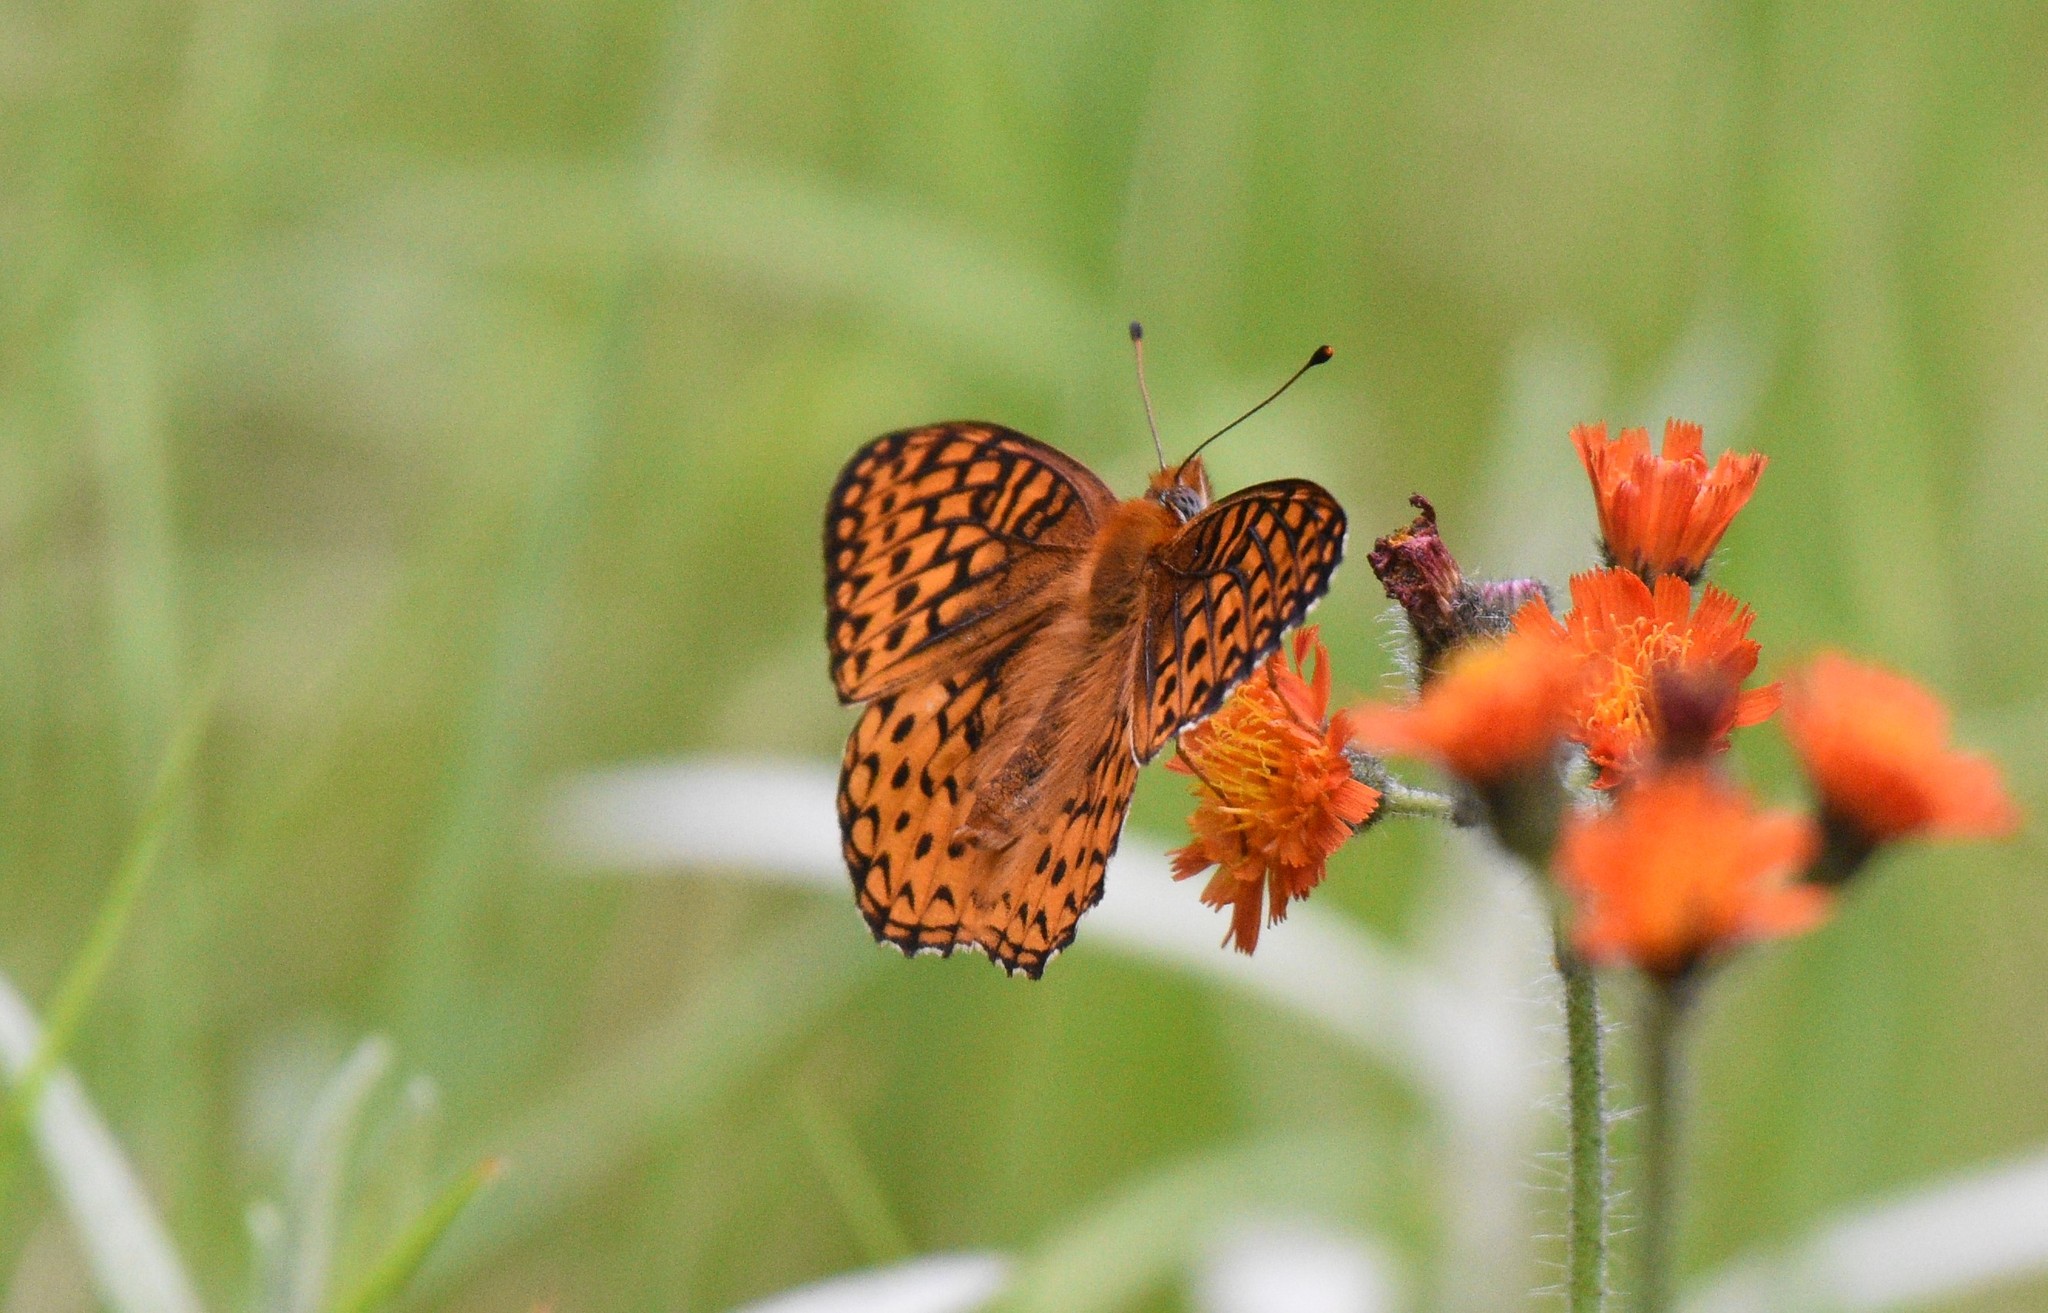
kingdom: Animalia
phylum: Arthropoda
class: Insecta
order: Lepidoptera
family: Nymphalidae
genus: Speyeria
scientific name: Speyeria atlantis
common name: Atlantis fritillary
